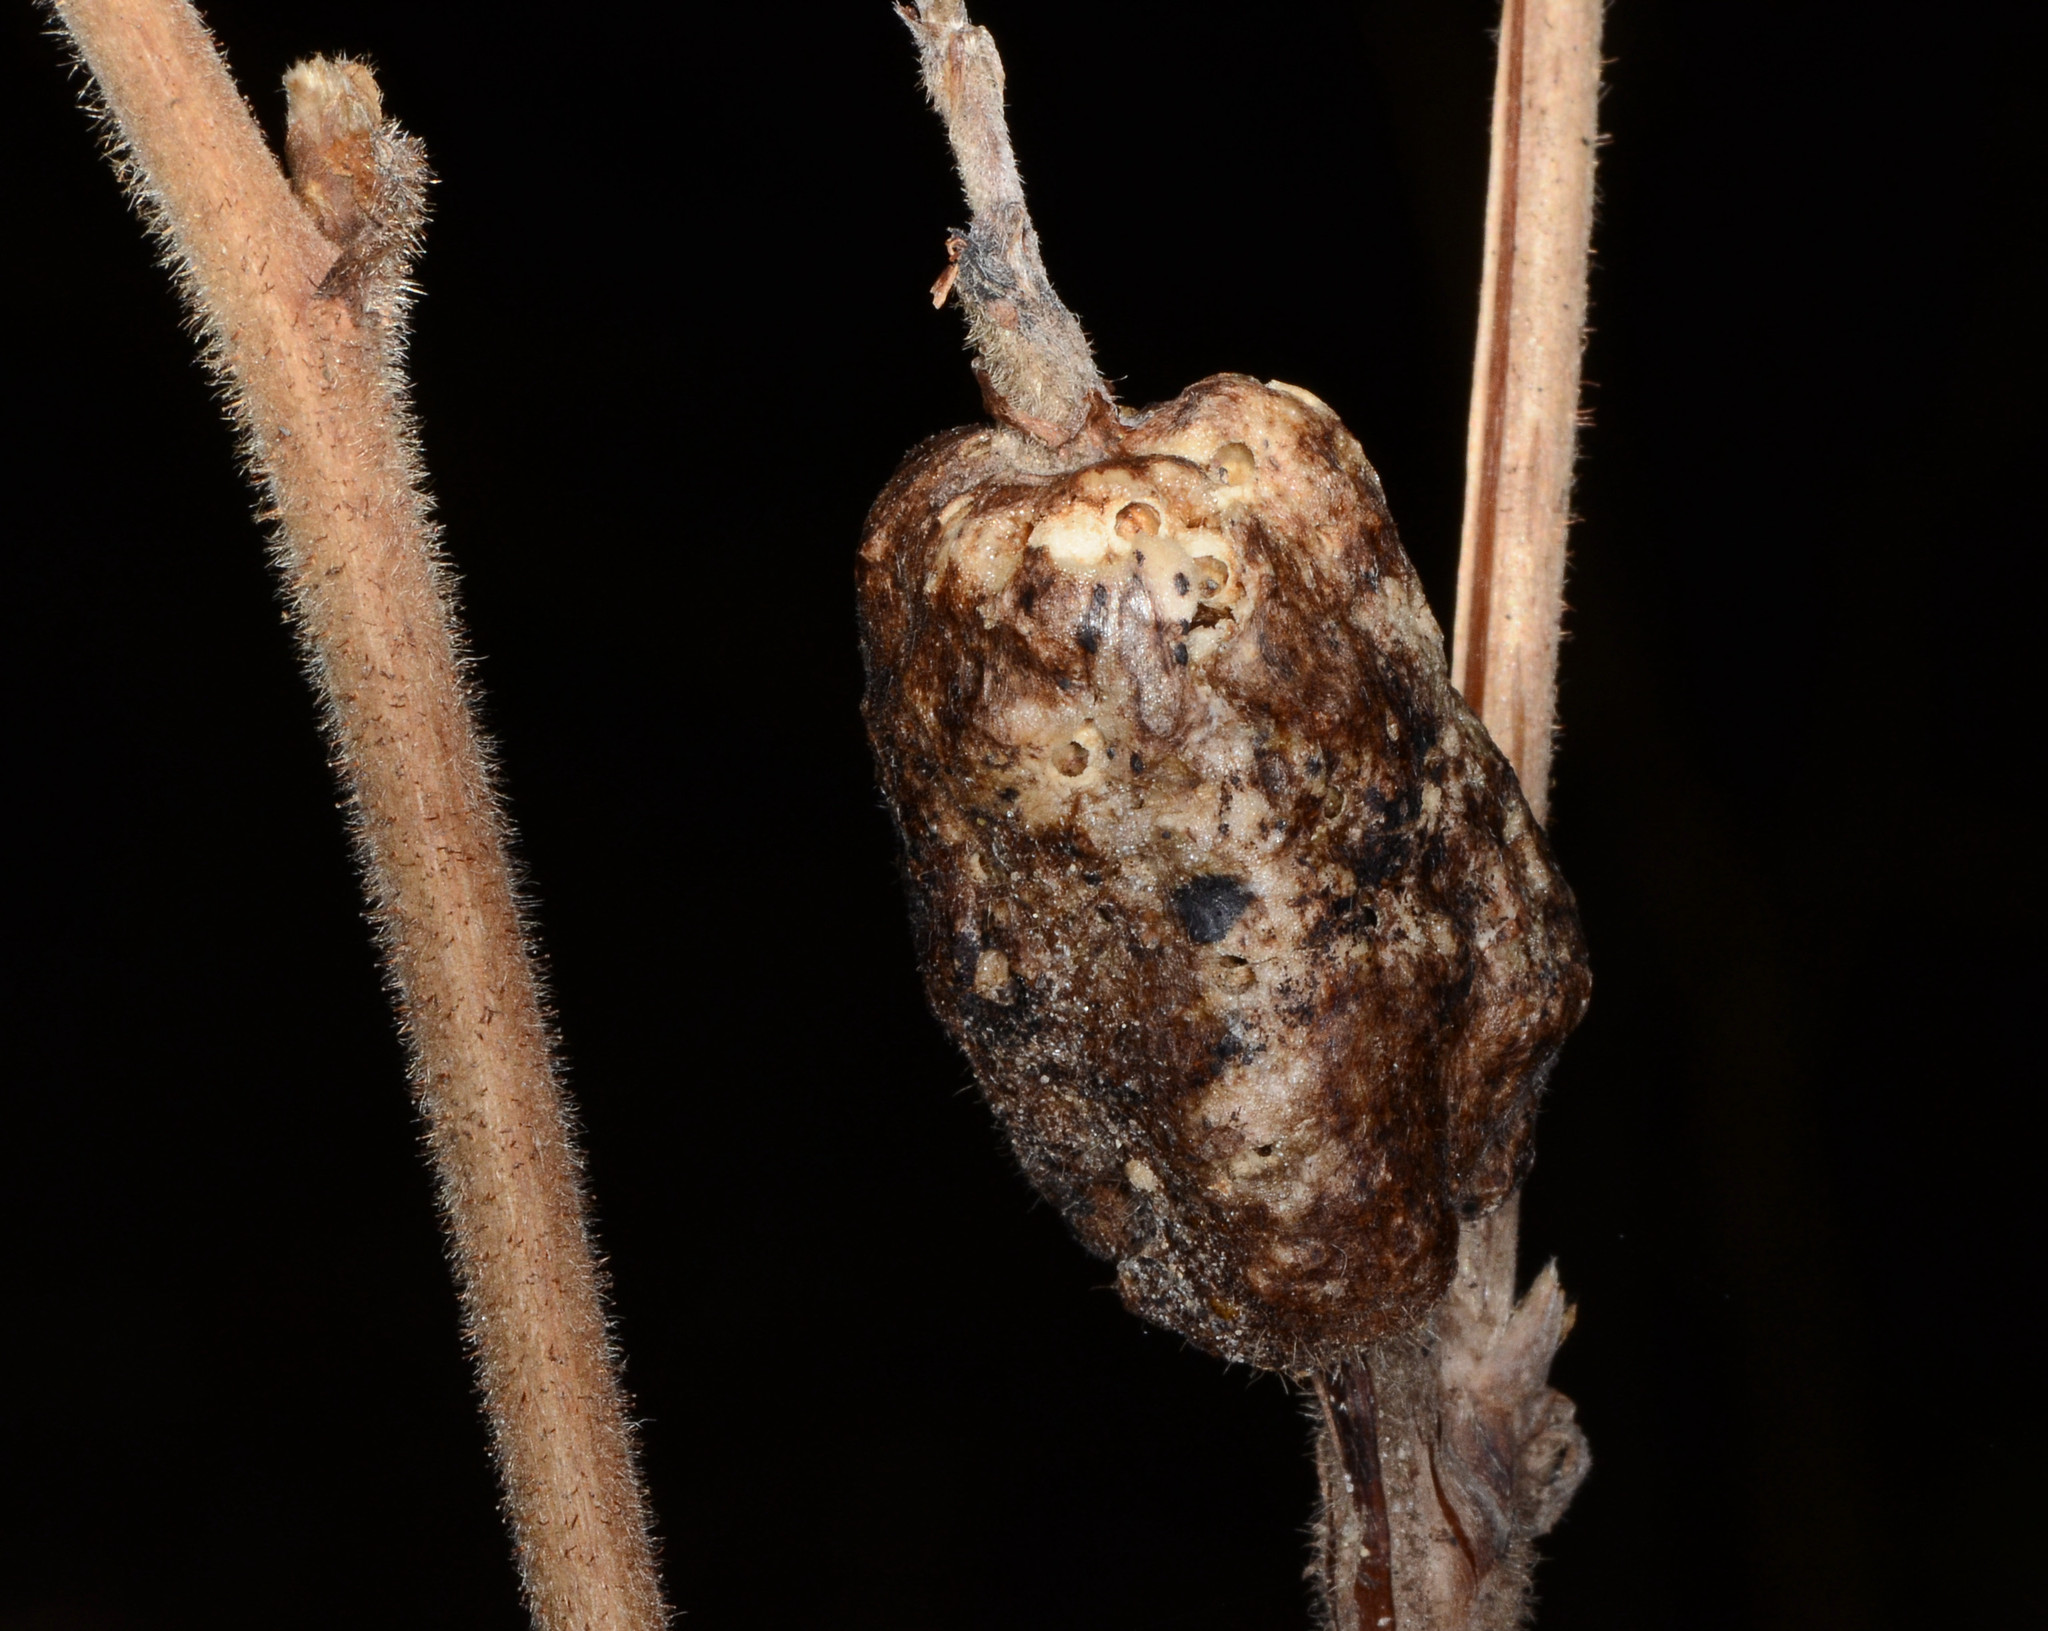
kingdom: Animalia
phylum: Arthropoda
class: Insecta
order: Hymenoptera
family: Cynipidae
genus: Diastrophus
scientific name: Diastrophus
